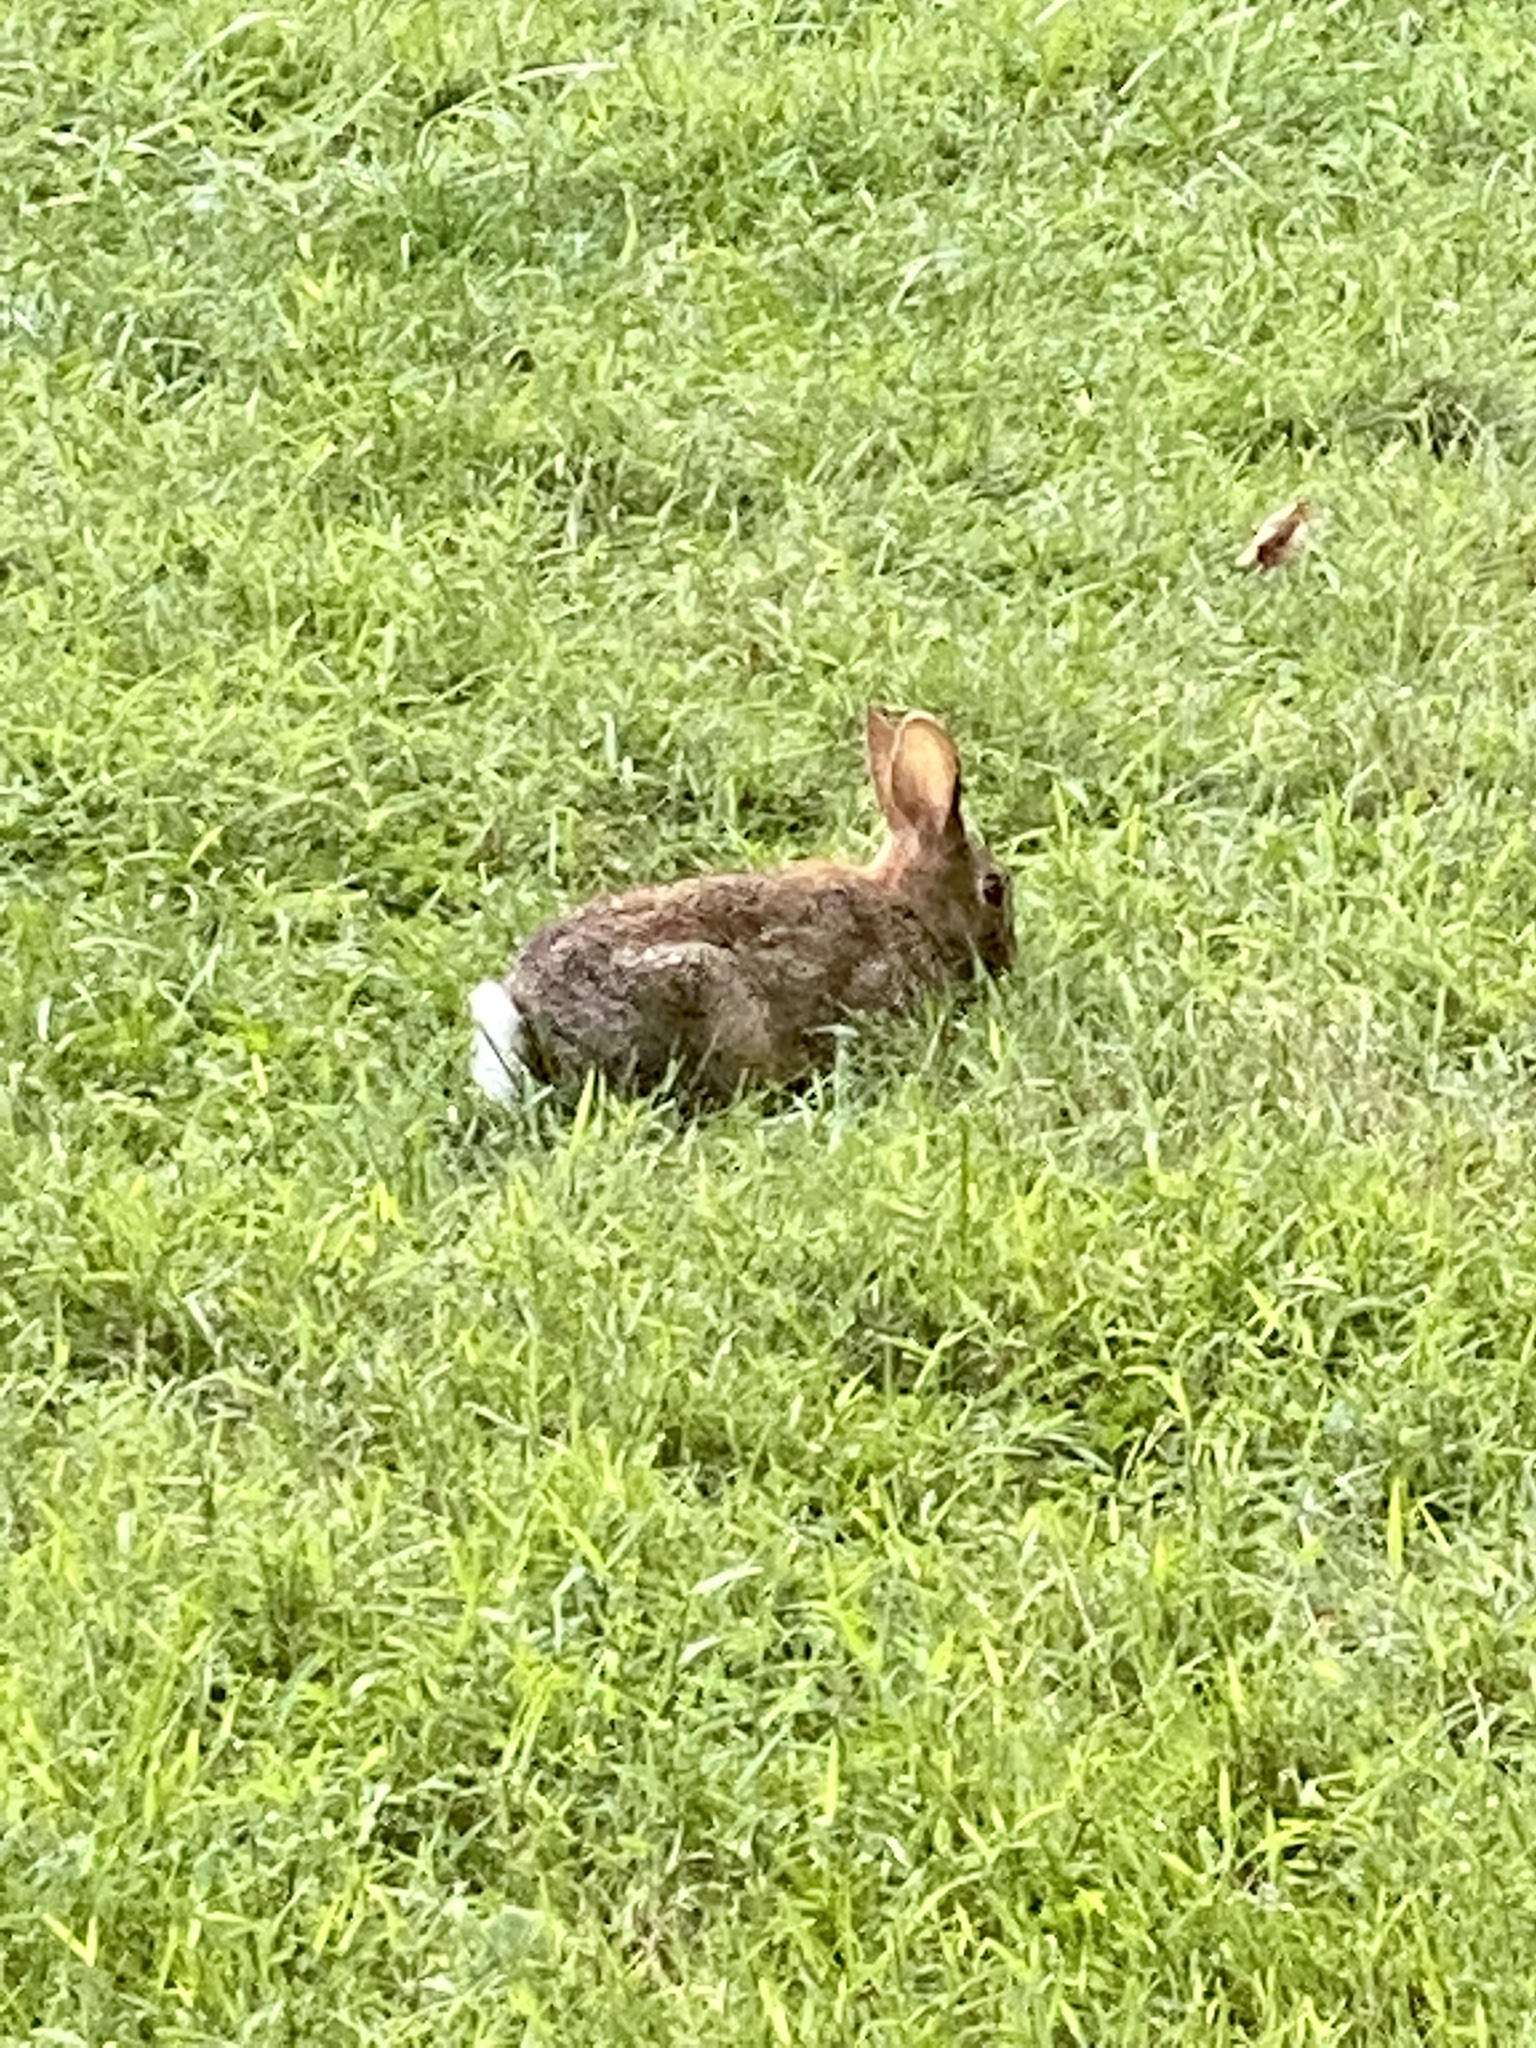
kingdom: Animalia
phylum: Chordata
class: Mammalia
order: Lagomorpha
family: Leporidae
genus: Sylvilagus
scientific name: Sylvilagus floridanus
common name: Eastern cottontail
